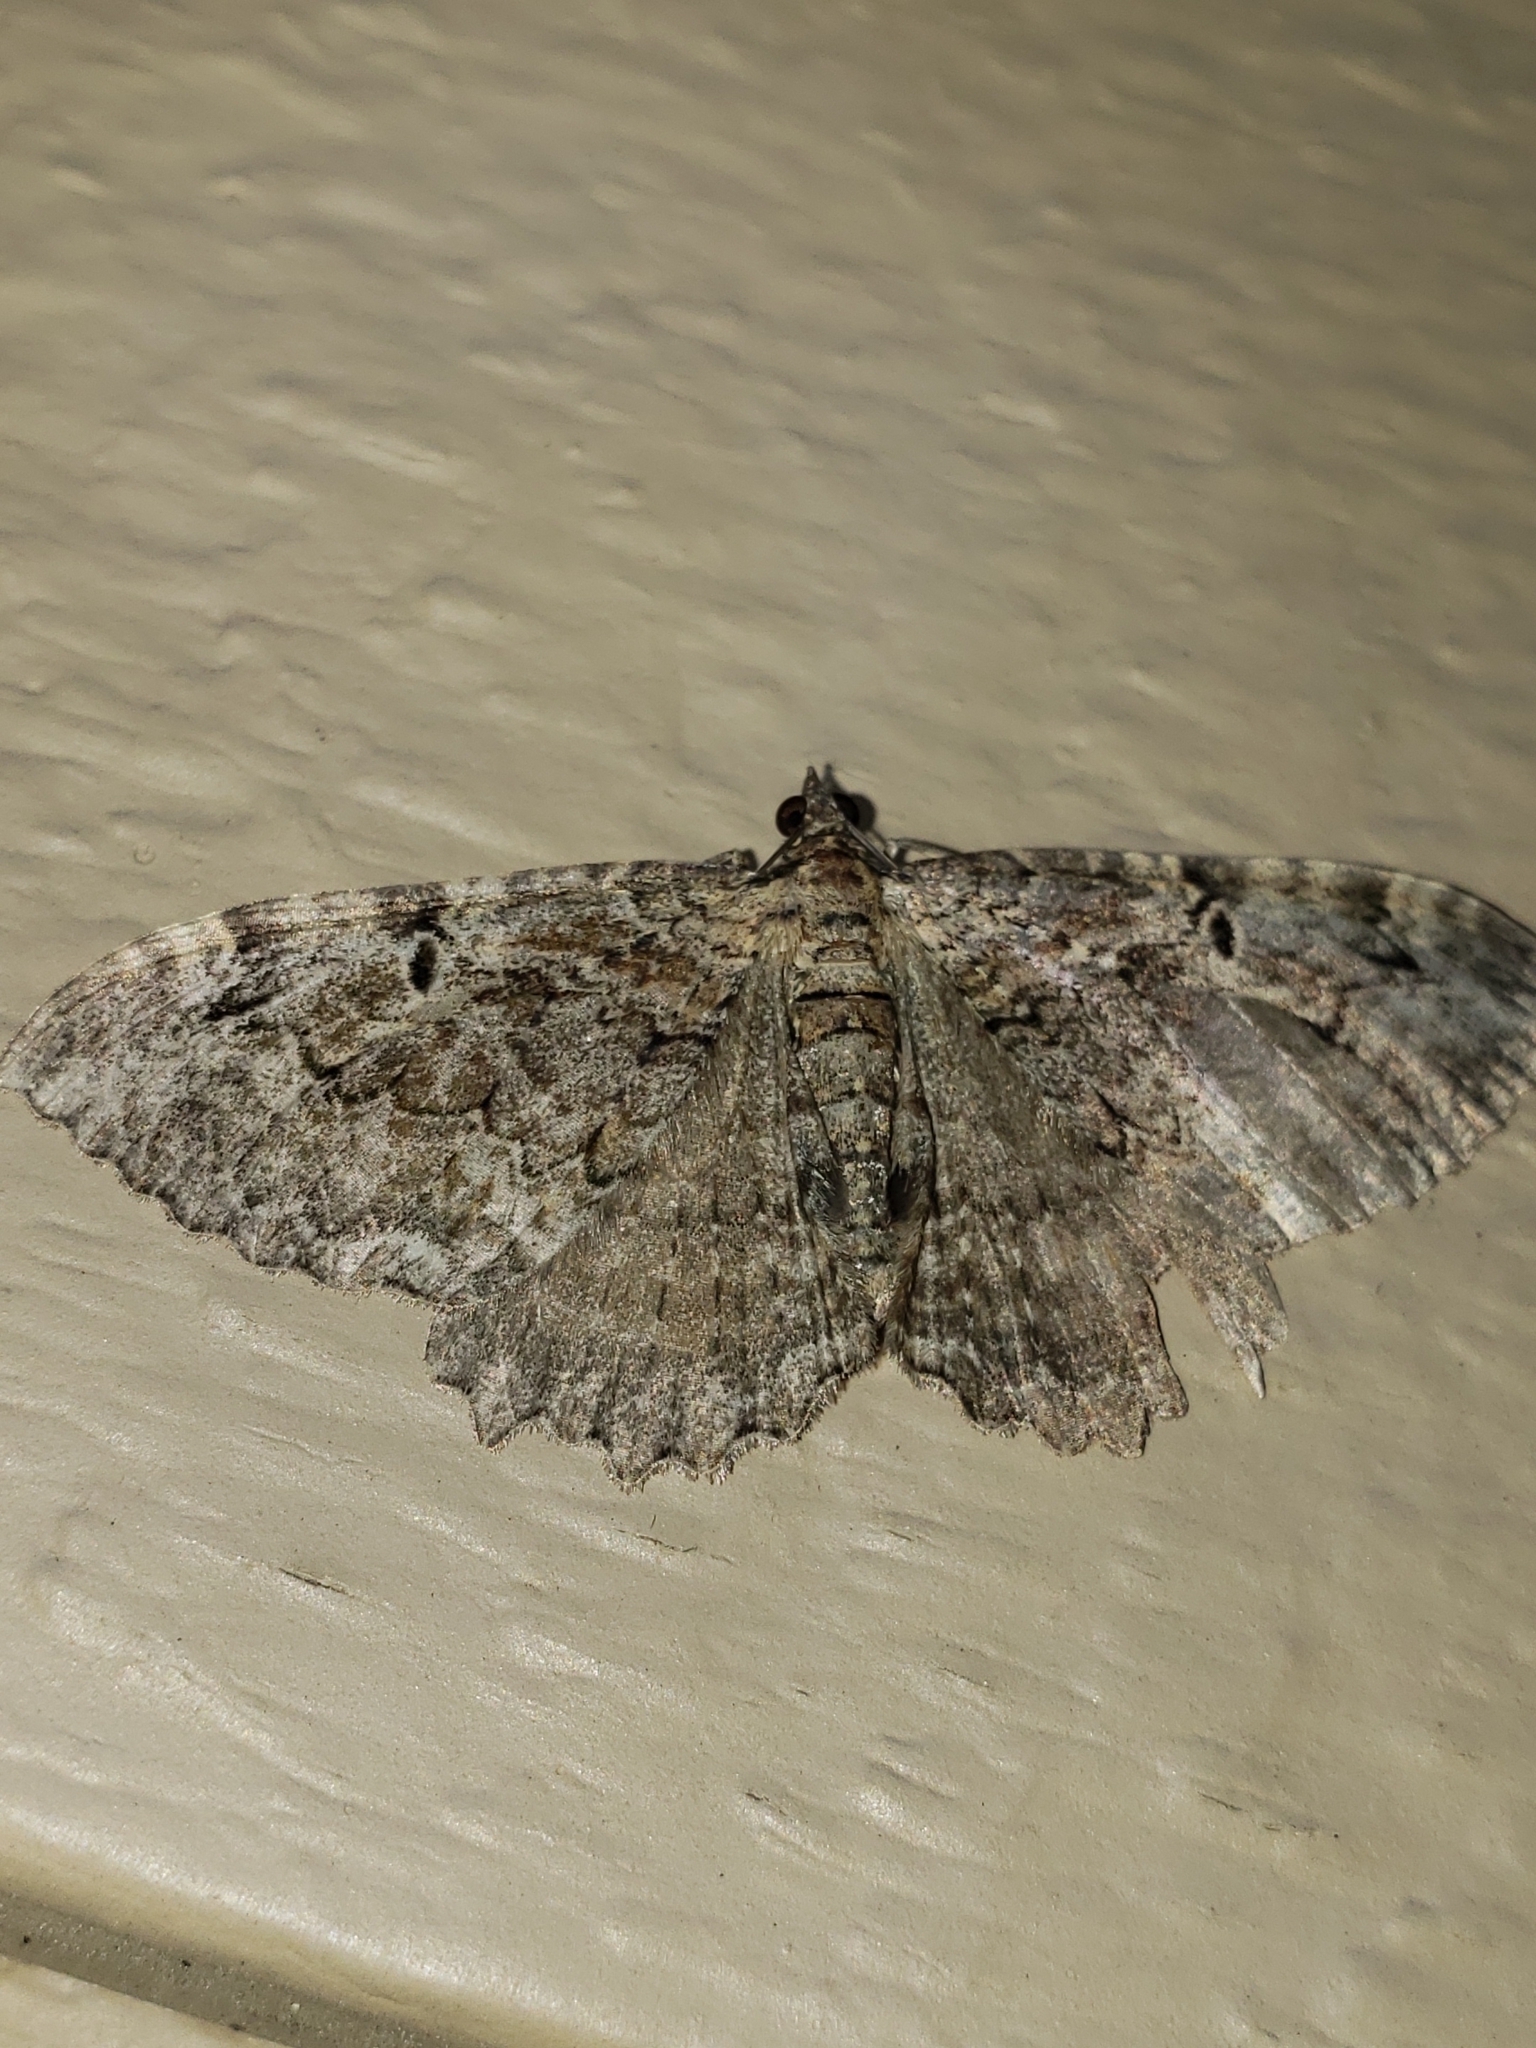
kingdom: Animalia
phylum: Arthropoda
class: Insecta
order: Lepidoptera
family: Geometridae
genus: Rheumaptera
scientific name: Rheumaptera
